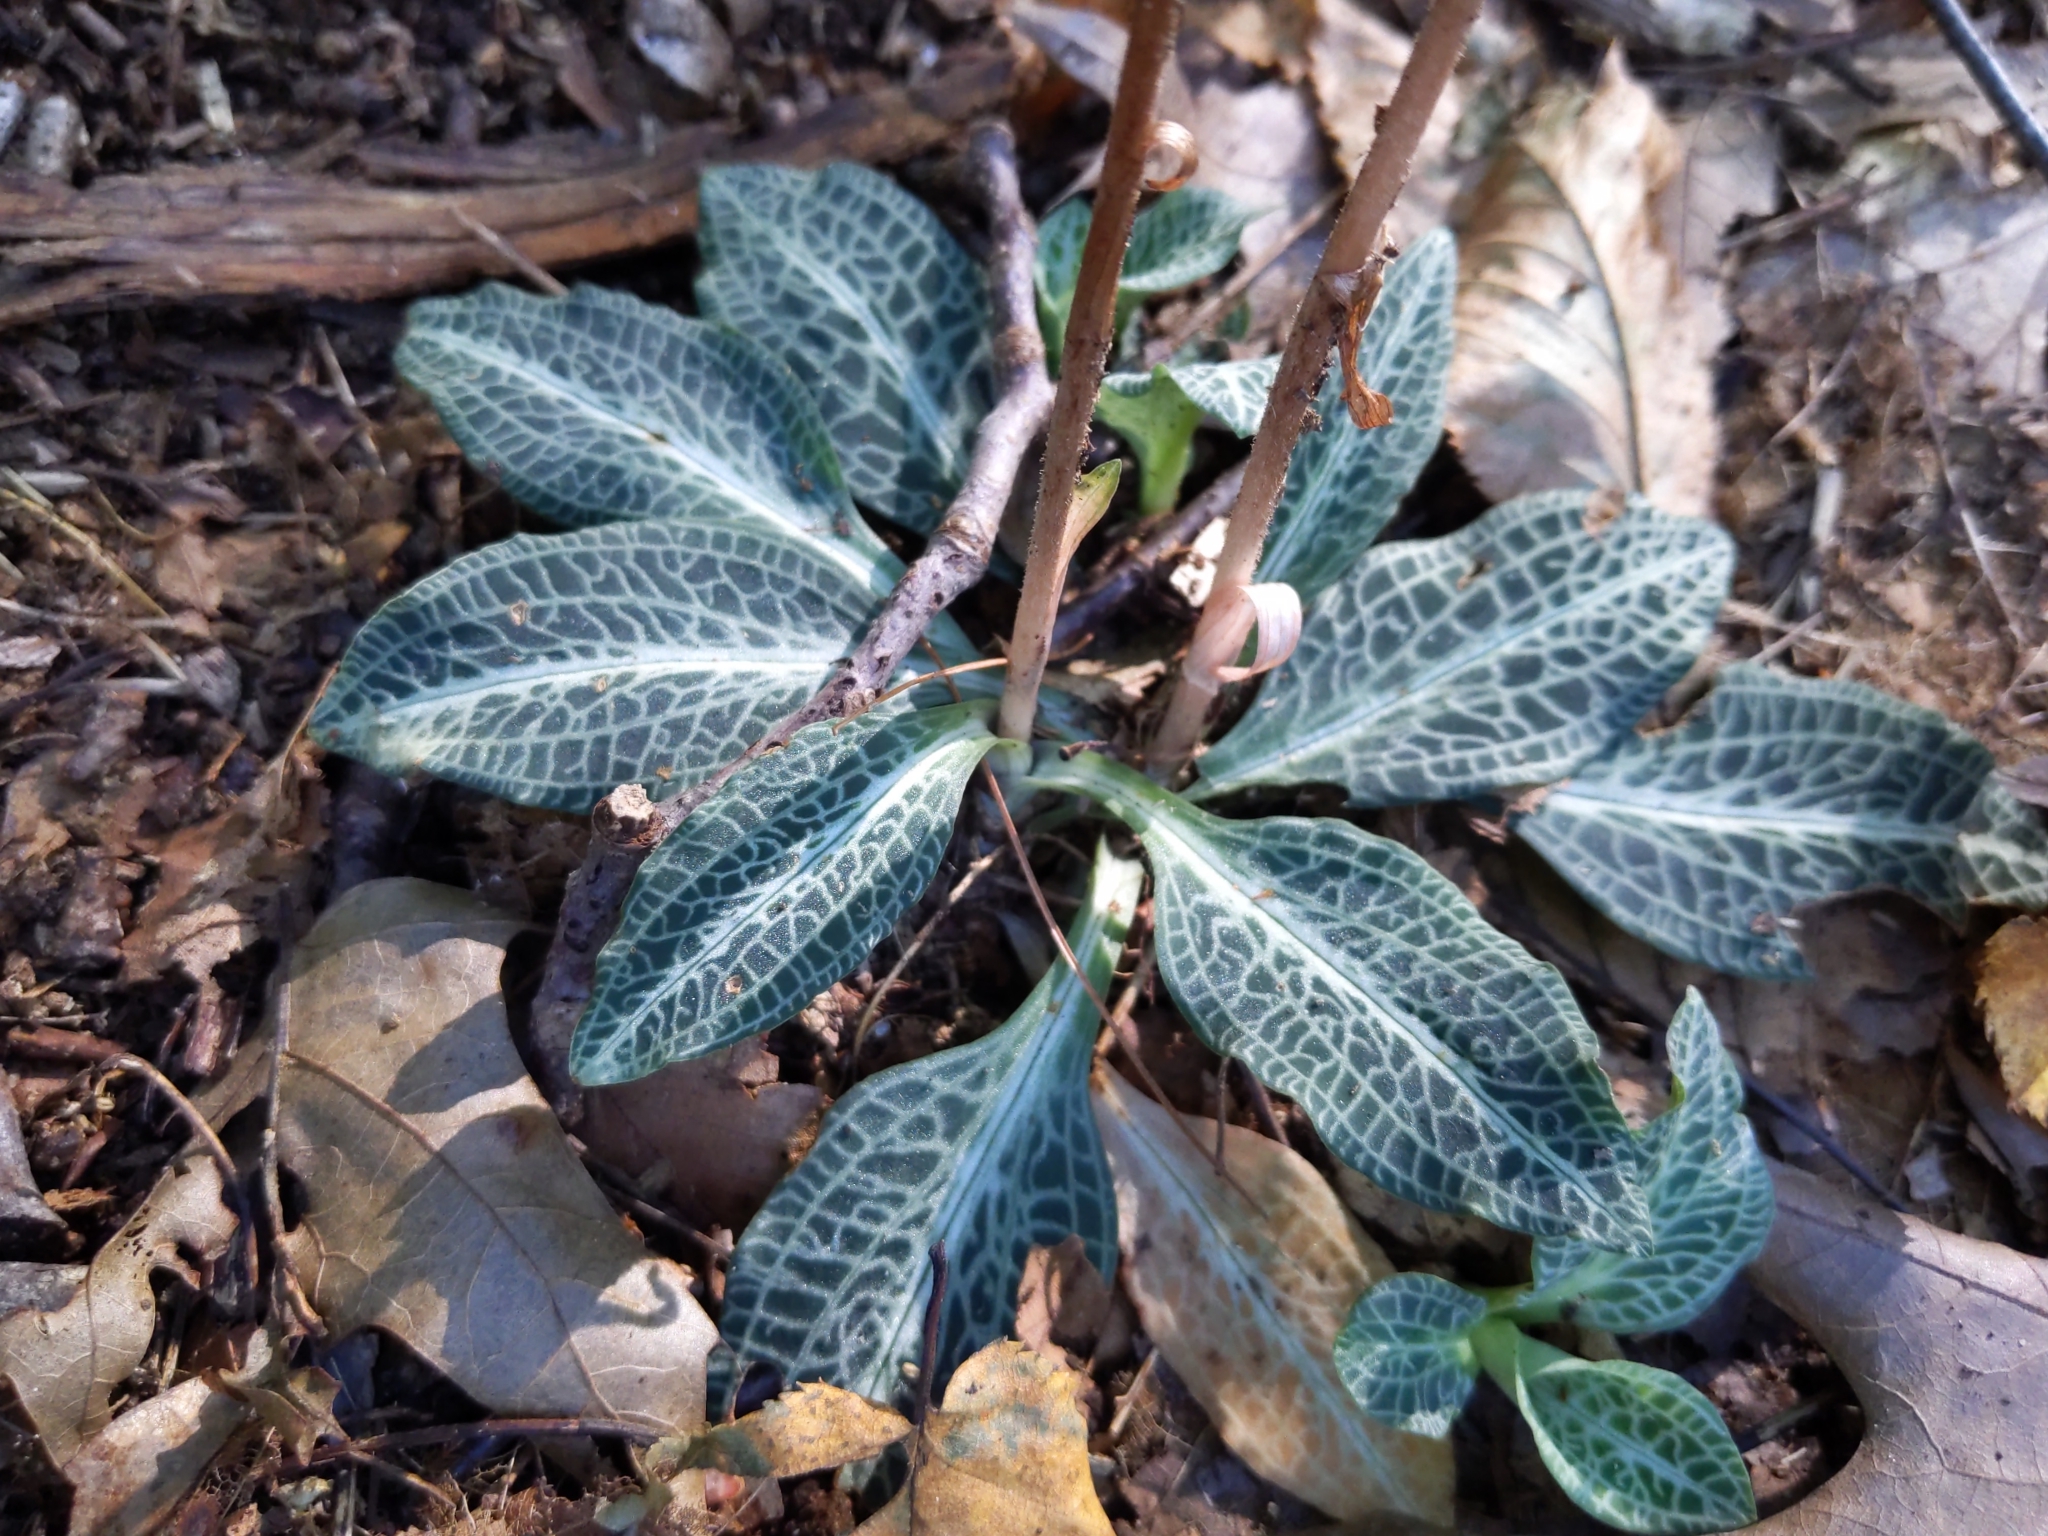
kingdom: Plantae
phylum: Tracheophyta
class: Liliopsida
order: Asparagales
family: Orchidaceae
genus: Goodyera
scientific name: Goodyera pubescens
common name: Downy rattlesnake-plantain
